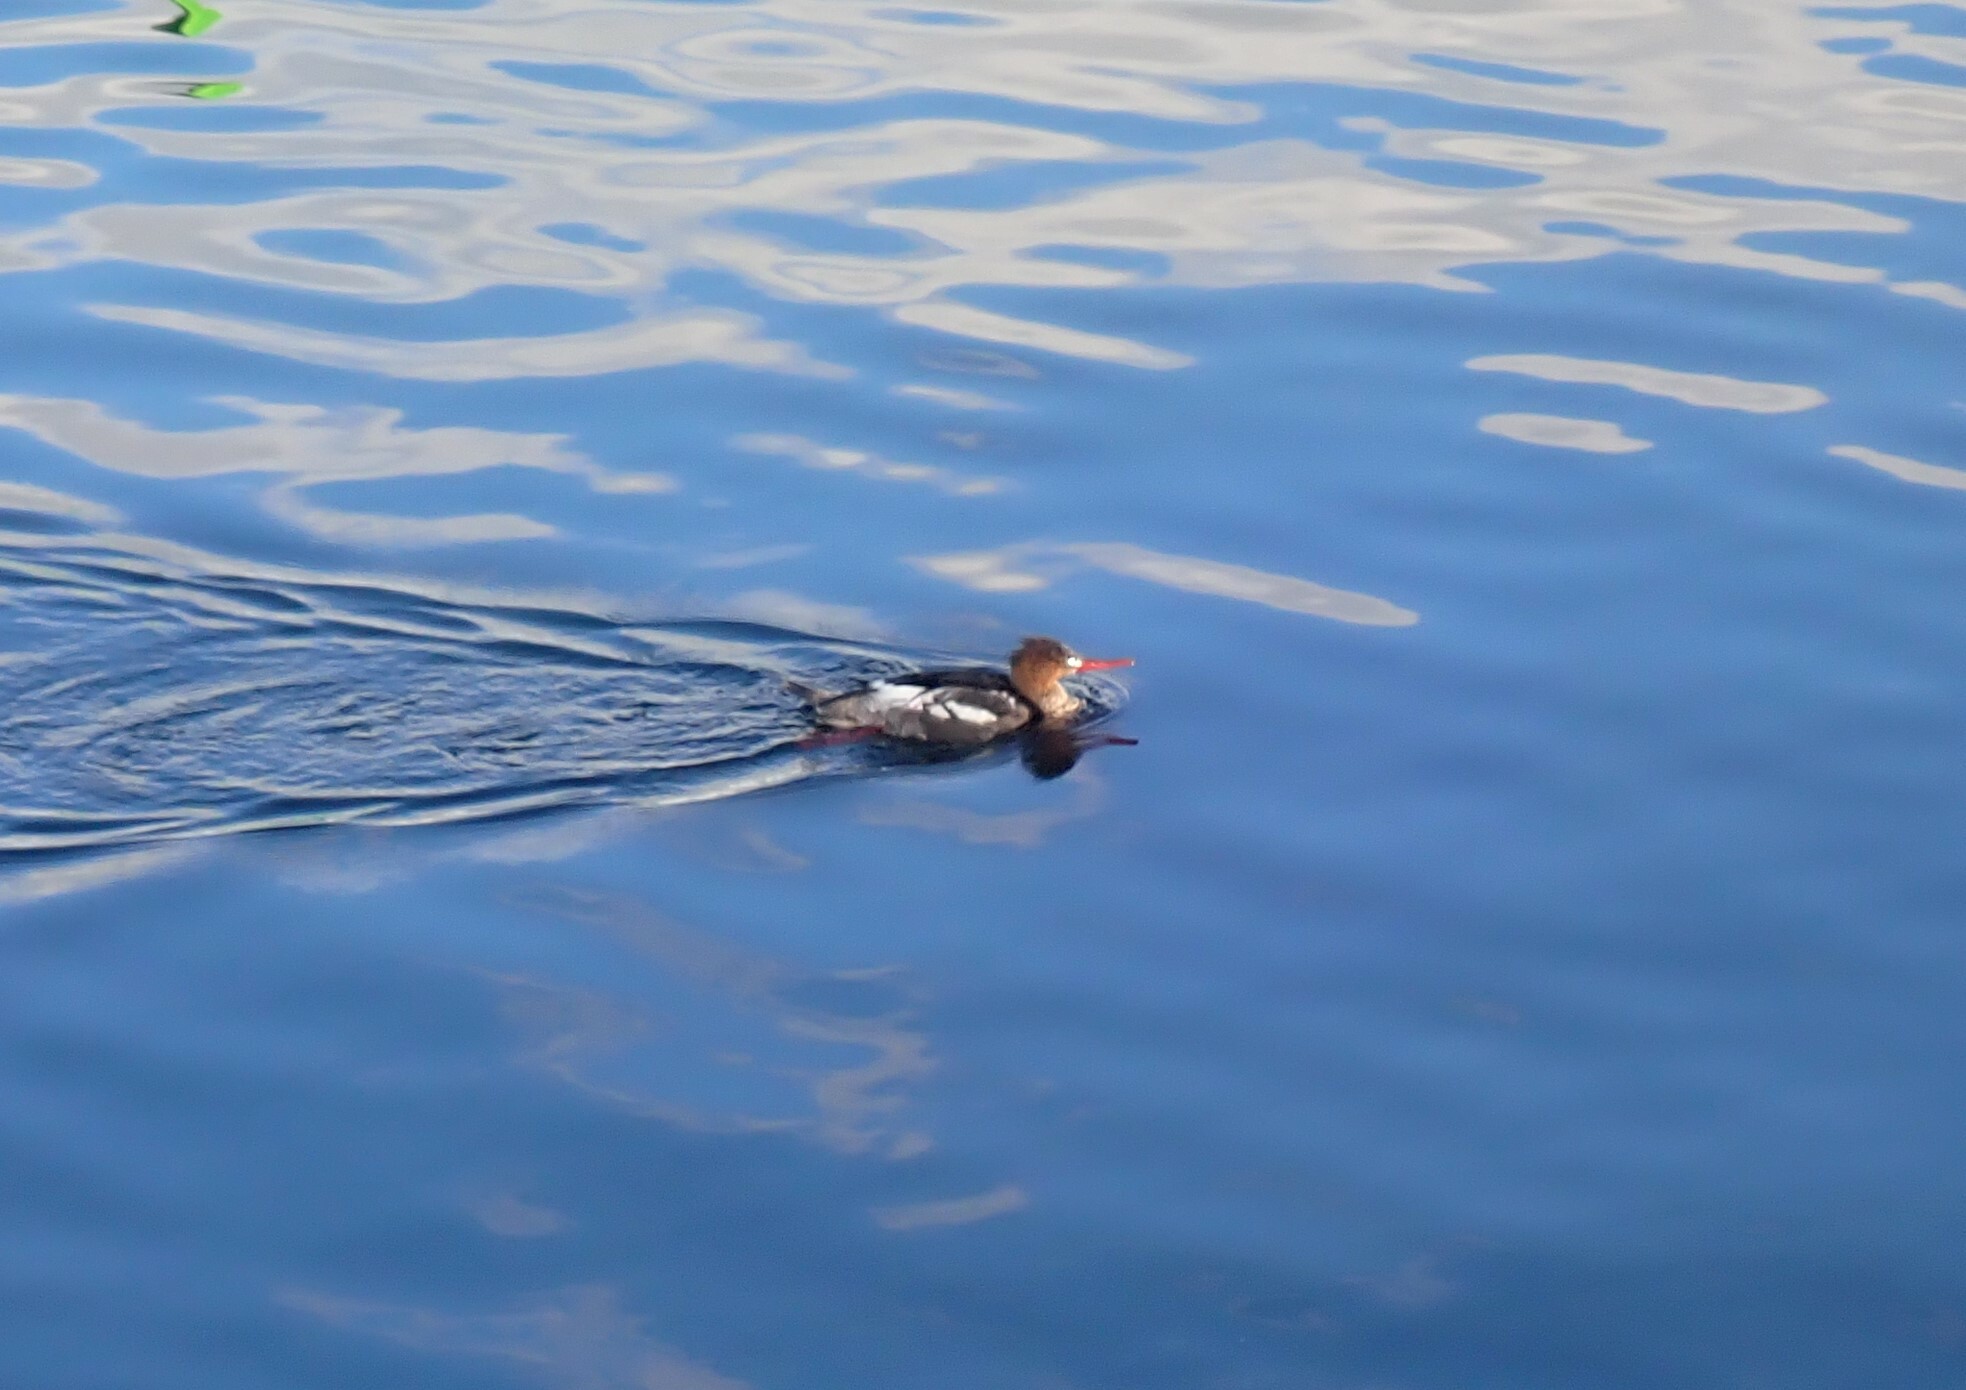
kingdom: Animalia
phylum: Chordata
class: Aves
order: Anseriformes
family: Anatidae
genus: Mergus
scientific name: Mergus serrator
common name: Red-breasted merganser
